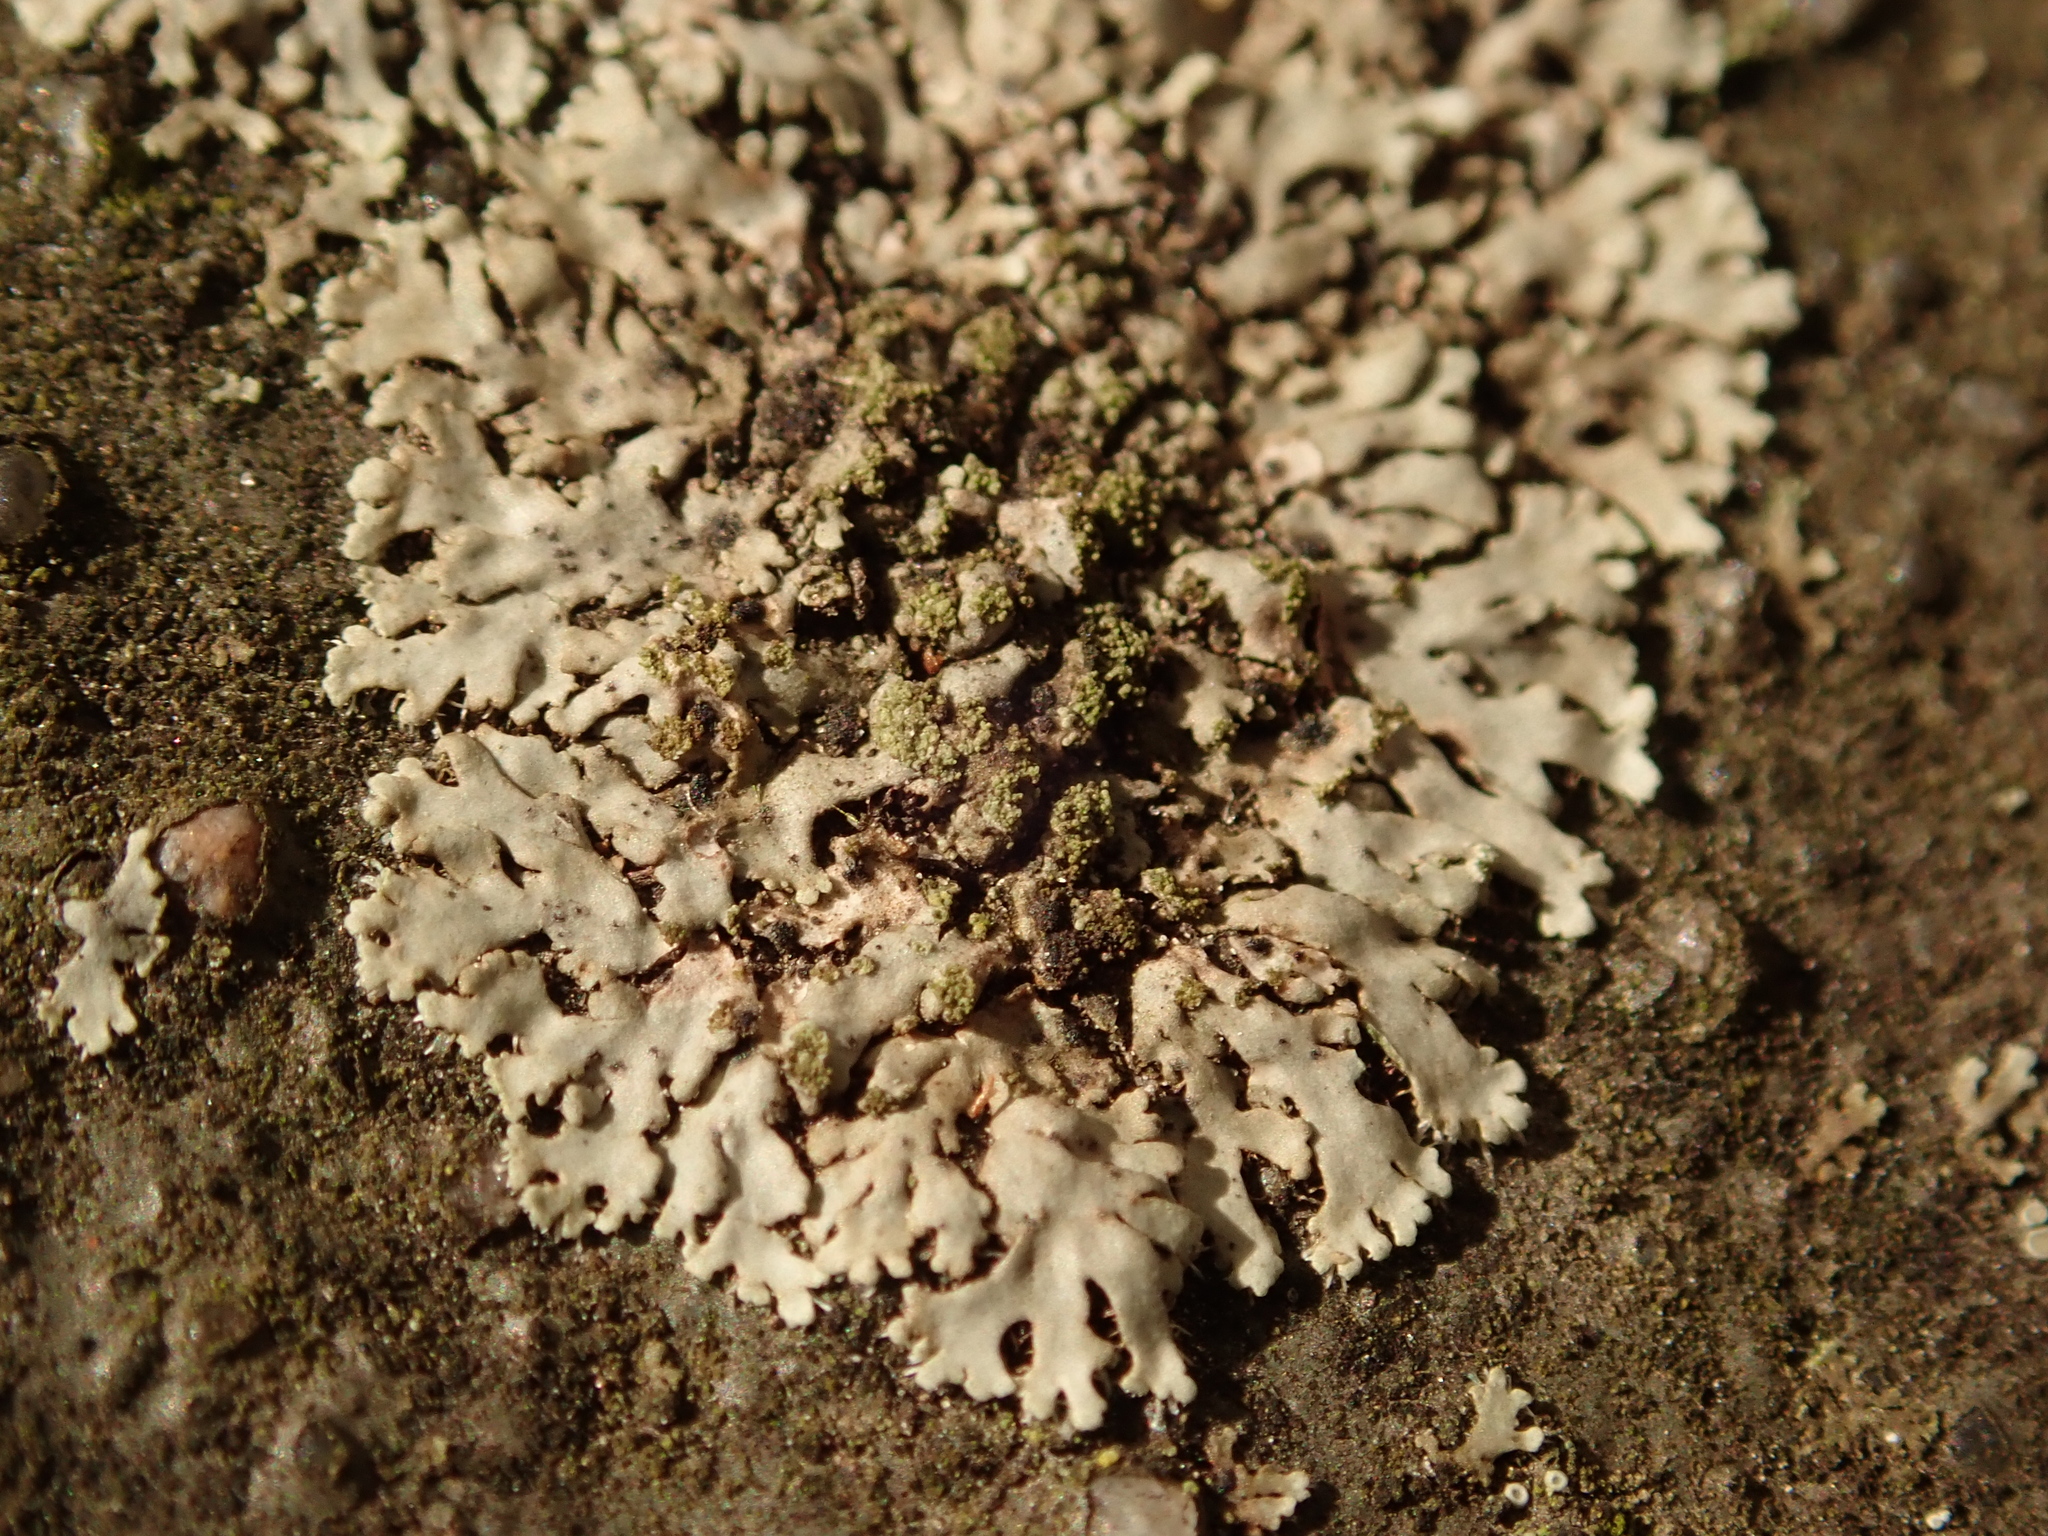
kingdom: Fungi
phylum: Ascomycota
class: Lecanoromycetes
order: Caliciales
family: Physciaceae
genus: Phaeophyscia
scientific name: Phaeophyscia orbicularis
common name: Mealy shadow lichen
